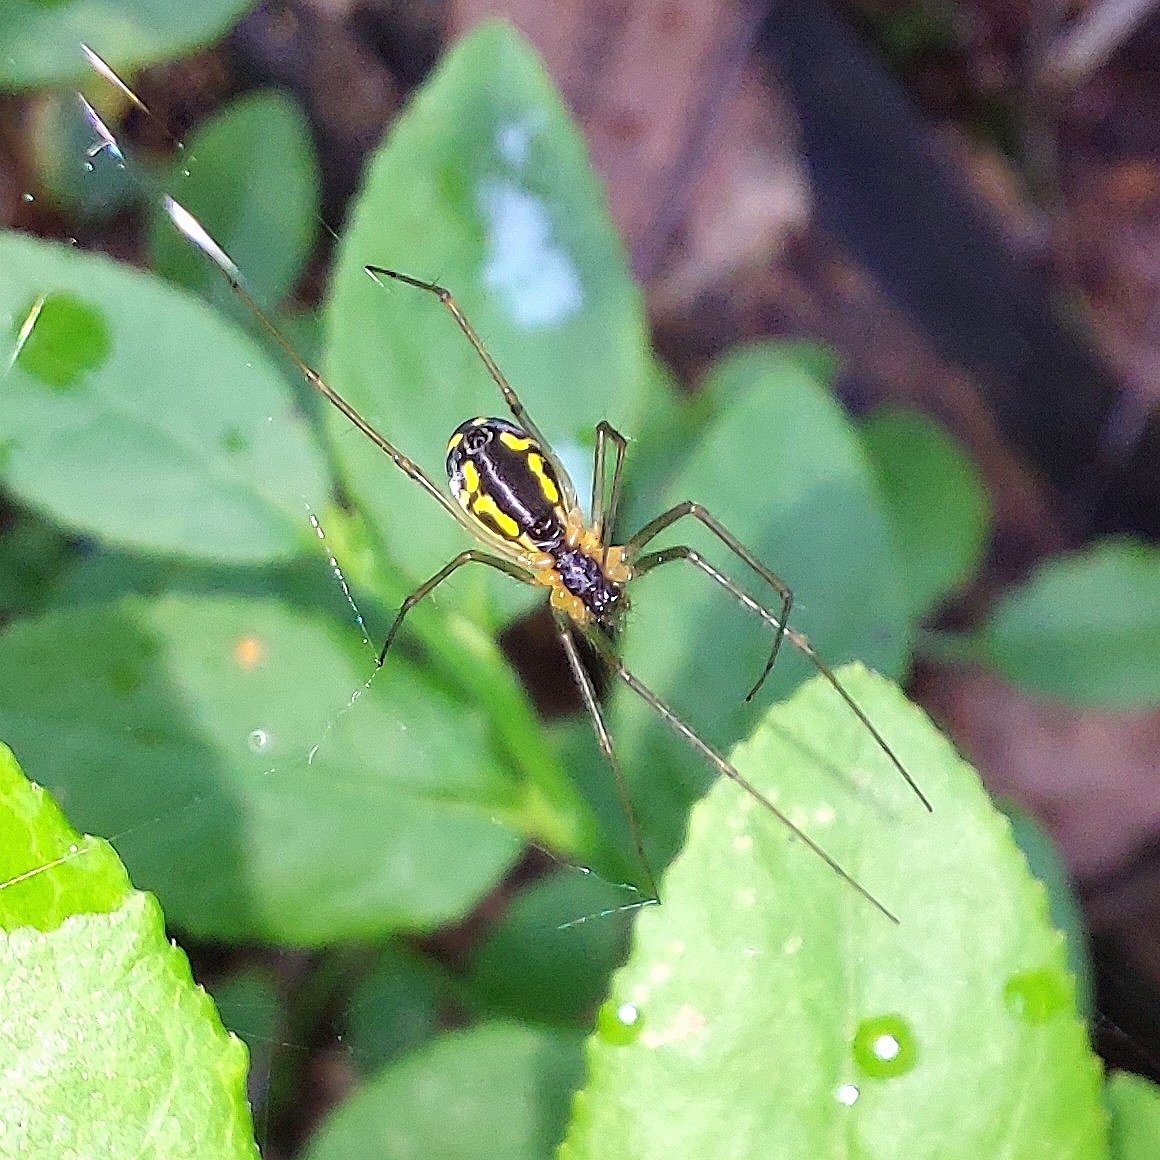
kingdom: Animalia
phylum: Arthropoda
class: Arachnida
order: Araneae
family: Linyphiidae
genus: Neriene
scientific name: Neriene radiata
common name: Filmy dome spider
